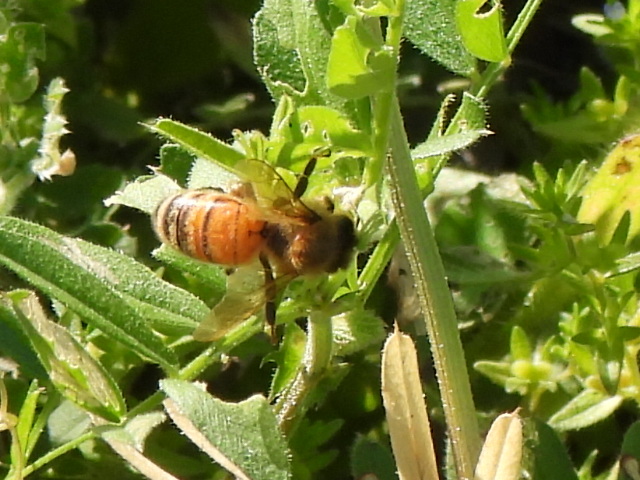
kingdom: Animalia
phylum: Arthropoda
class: Insecta
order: Hymenoptera
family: Apidae
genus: Apis
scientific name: Apis mellifera
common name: Honey bee
